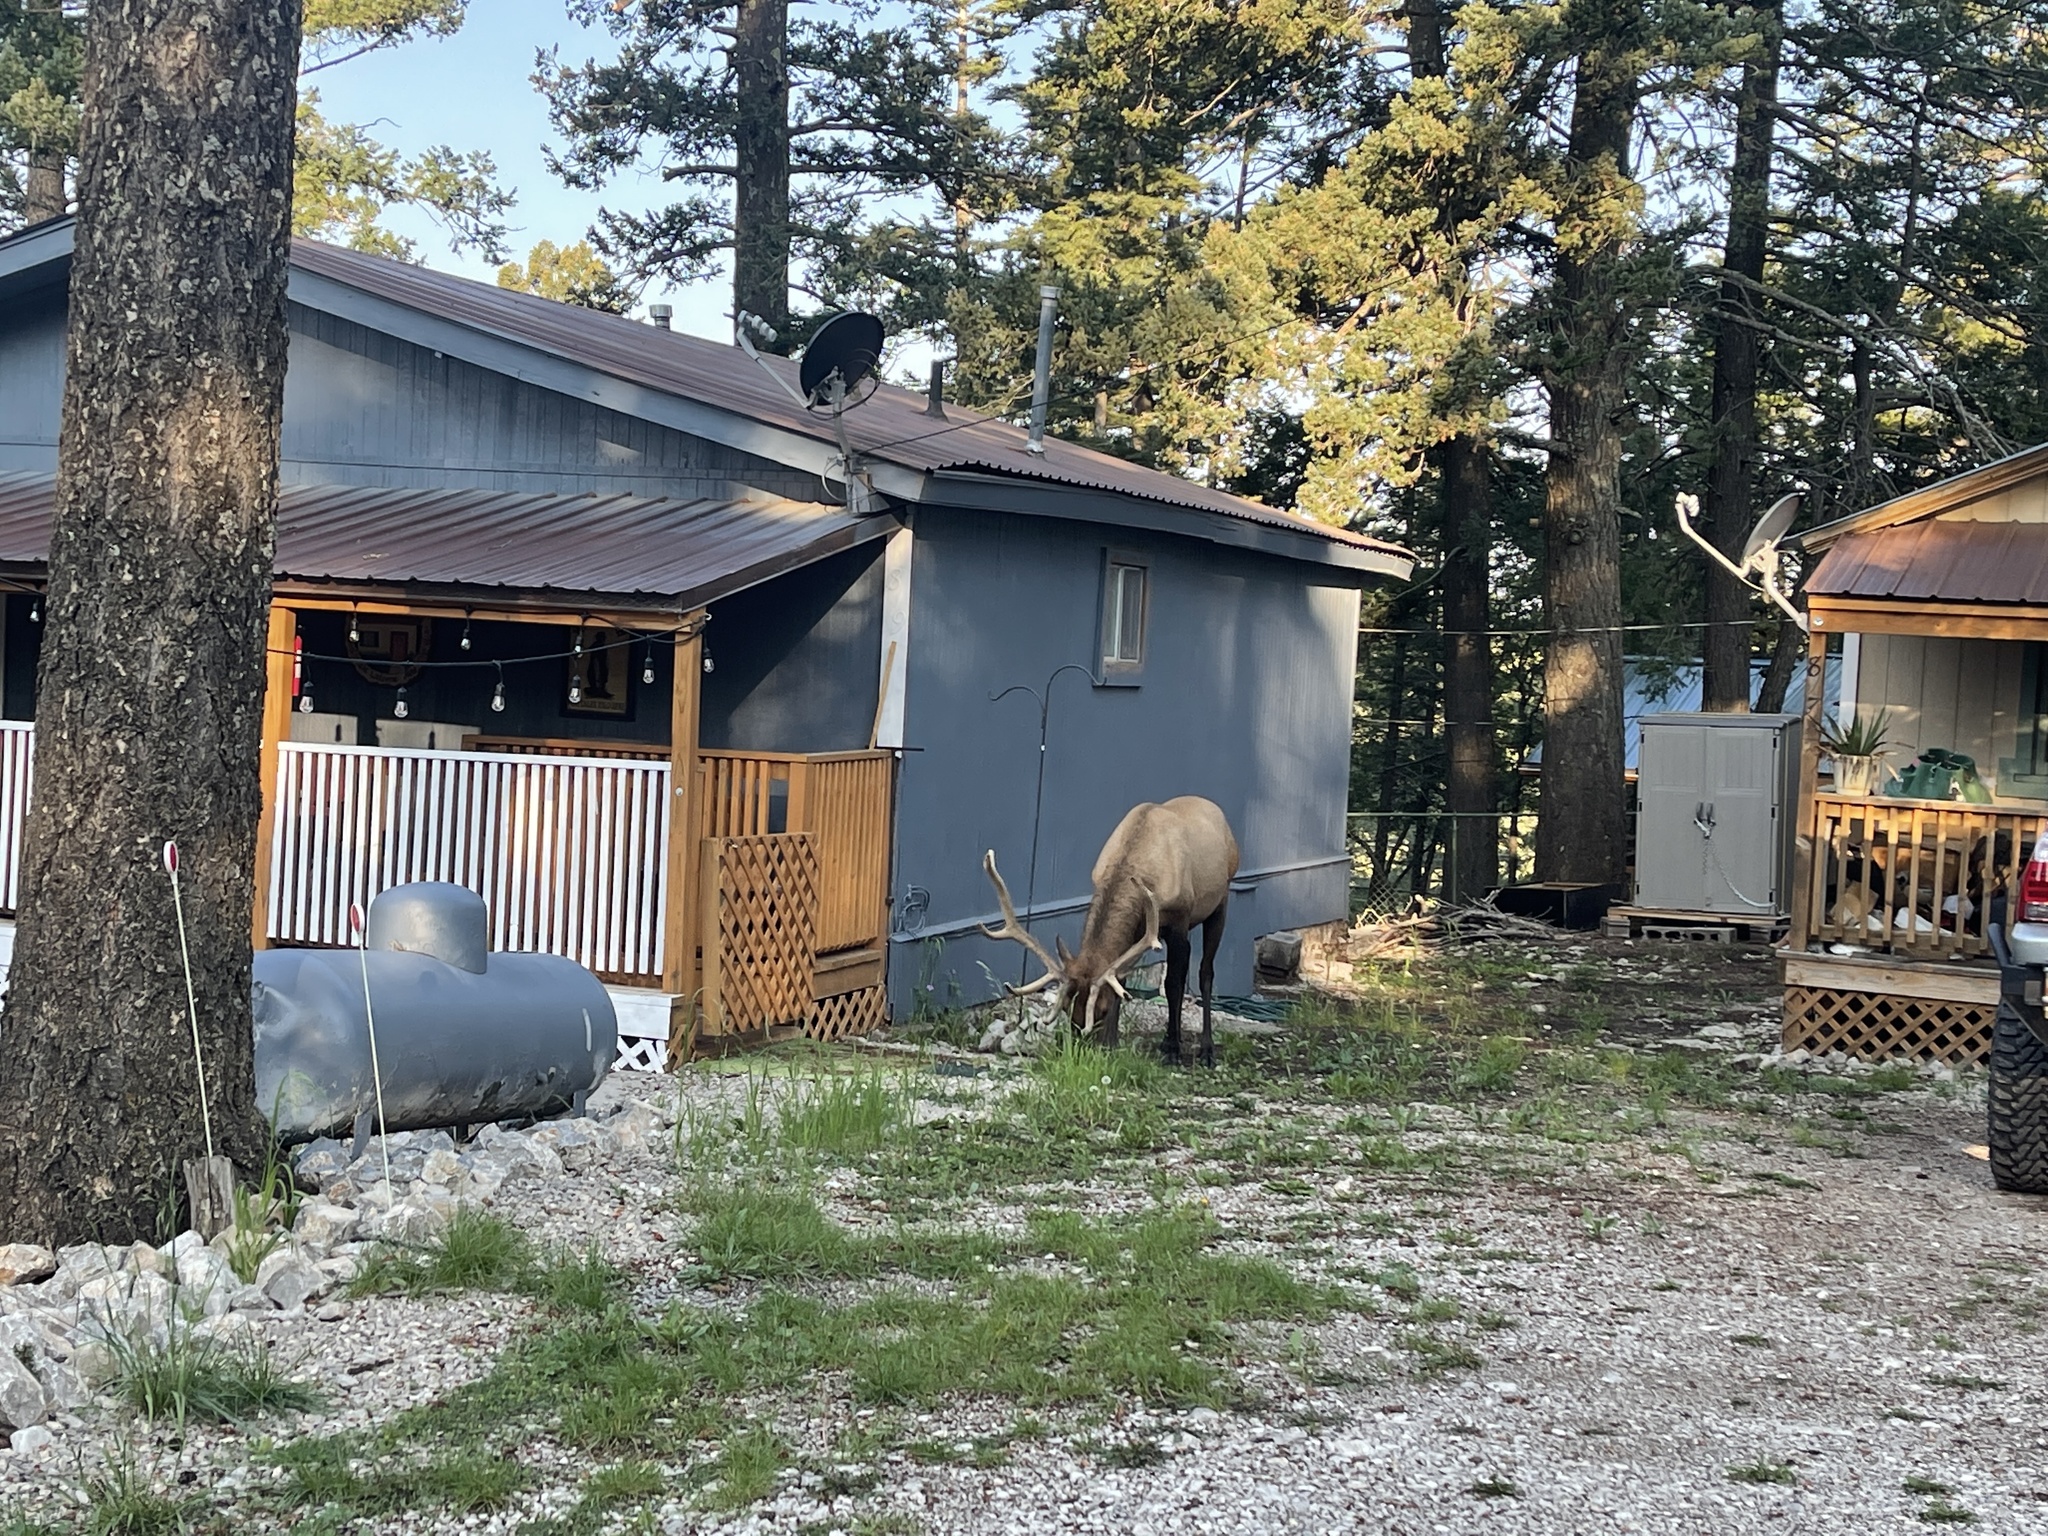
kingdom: Animalia
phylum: Chordata
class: Mammalia
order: Artiodactyla
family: Cervidae
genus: Cervus
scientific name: Cervus elaphus
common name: Red deer
